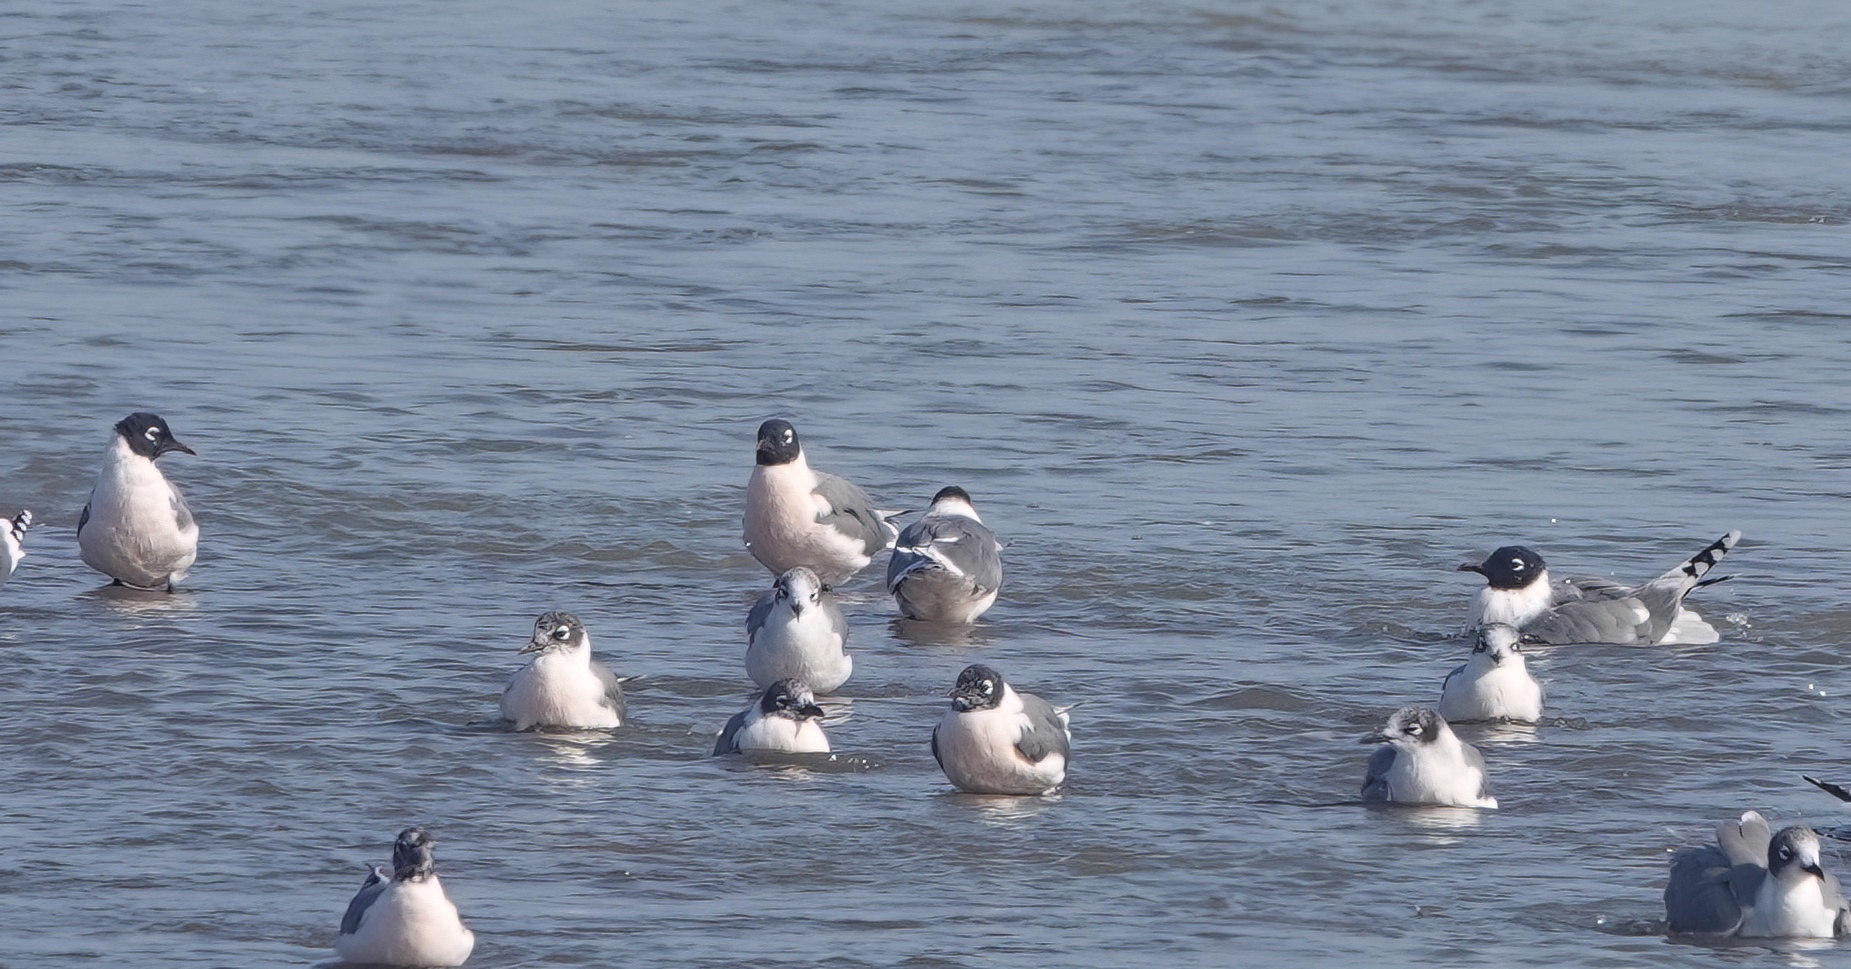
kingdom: Animalia
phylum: Chordata
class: Aves
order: Charadriiformes
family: Laridae
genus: Leucophaeus
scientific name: Leucophaeus pipixcan
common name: Franklin's gull
